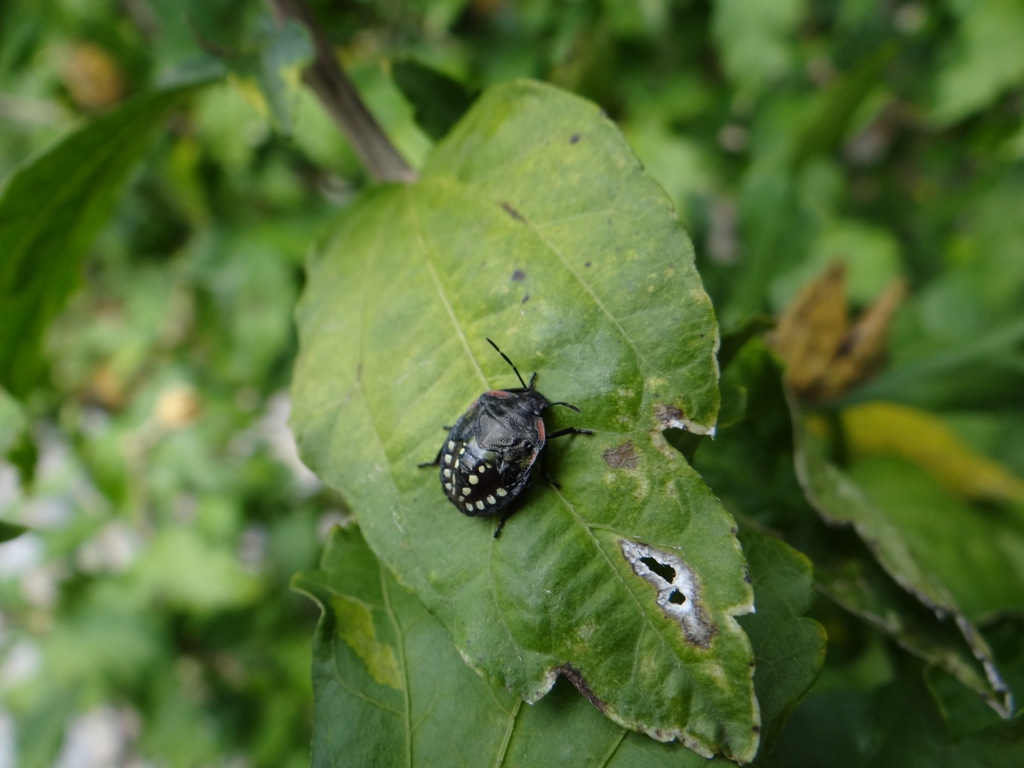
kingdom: Animalia
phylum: Arthropoda
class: Insecta
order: Hemiptera
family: Pentatomidae
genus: Nezara
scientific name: Nezara viridula
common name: Southern green stink bug
